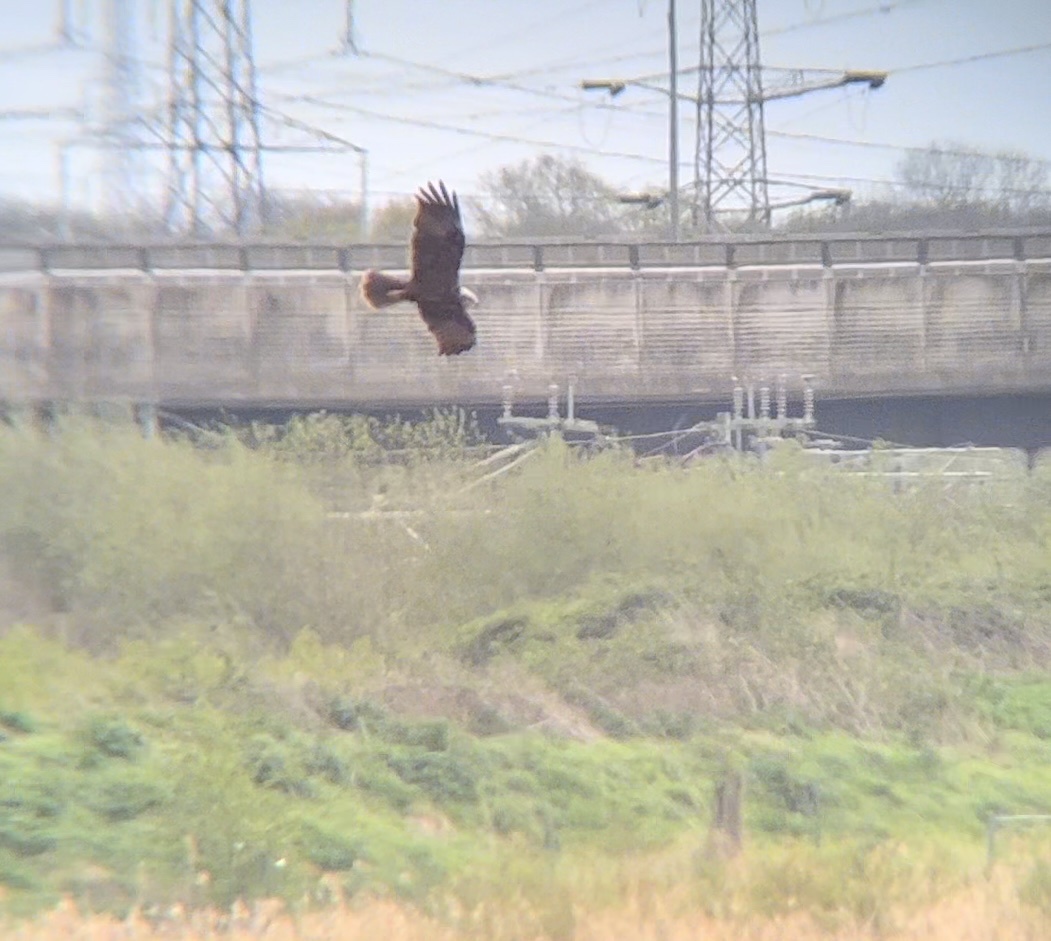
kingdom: Animalia
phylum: Chordata
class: Aves
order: Accipitriformes
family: Accipitridae
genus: Circus
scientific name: Circus aeruginosus
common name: Western marsh harrier
